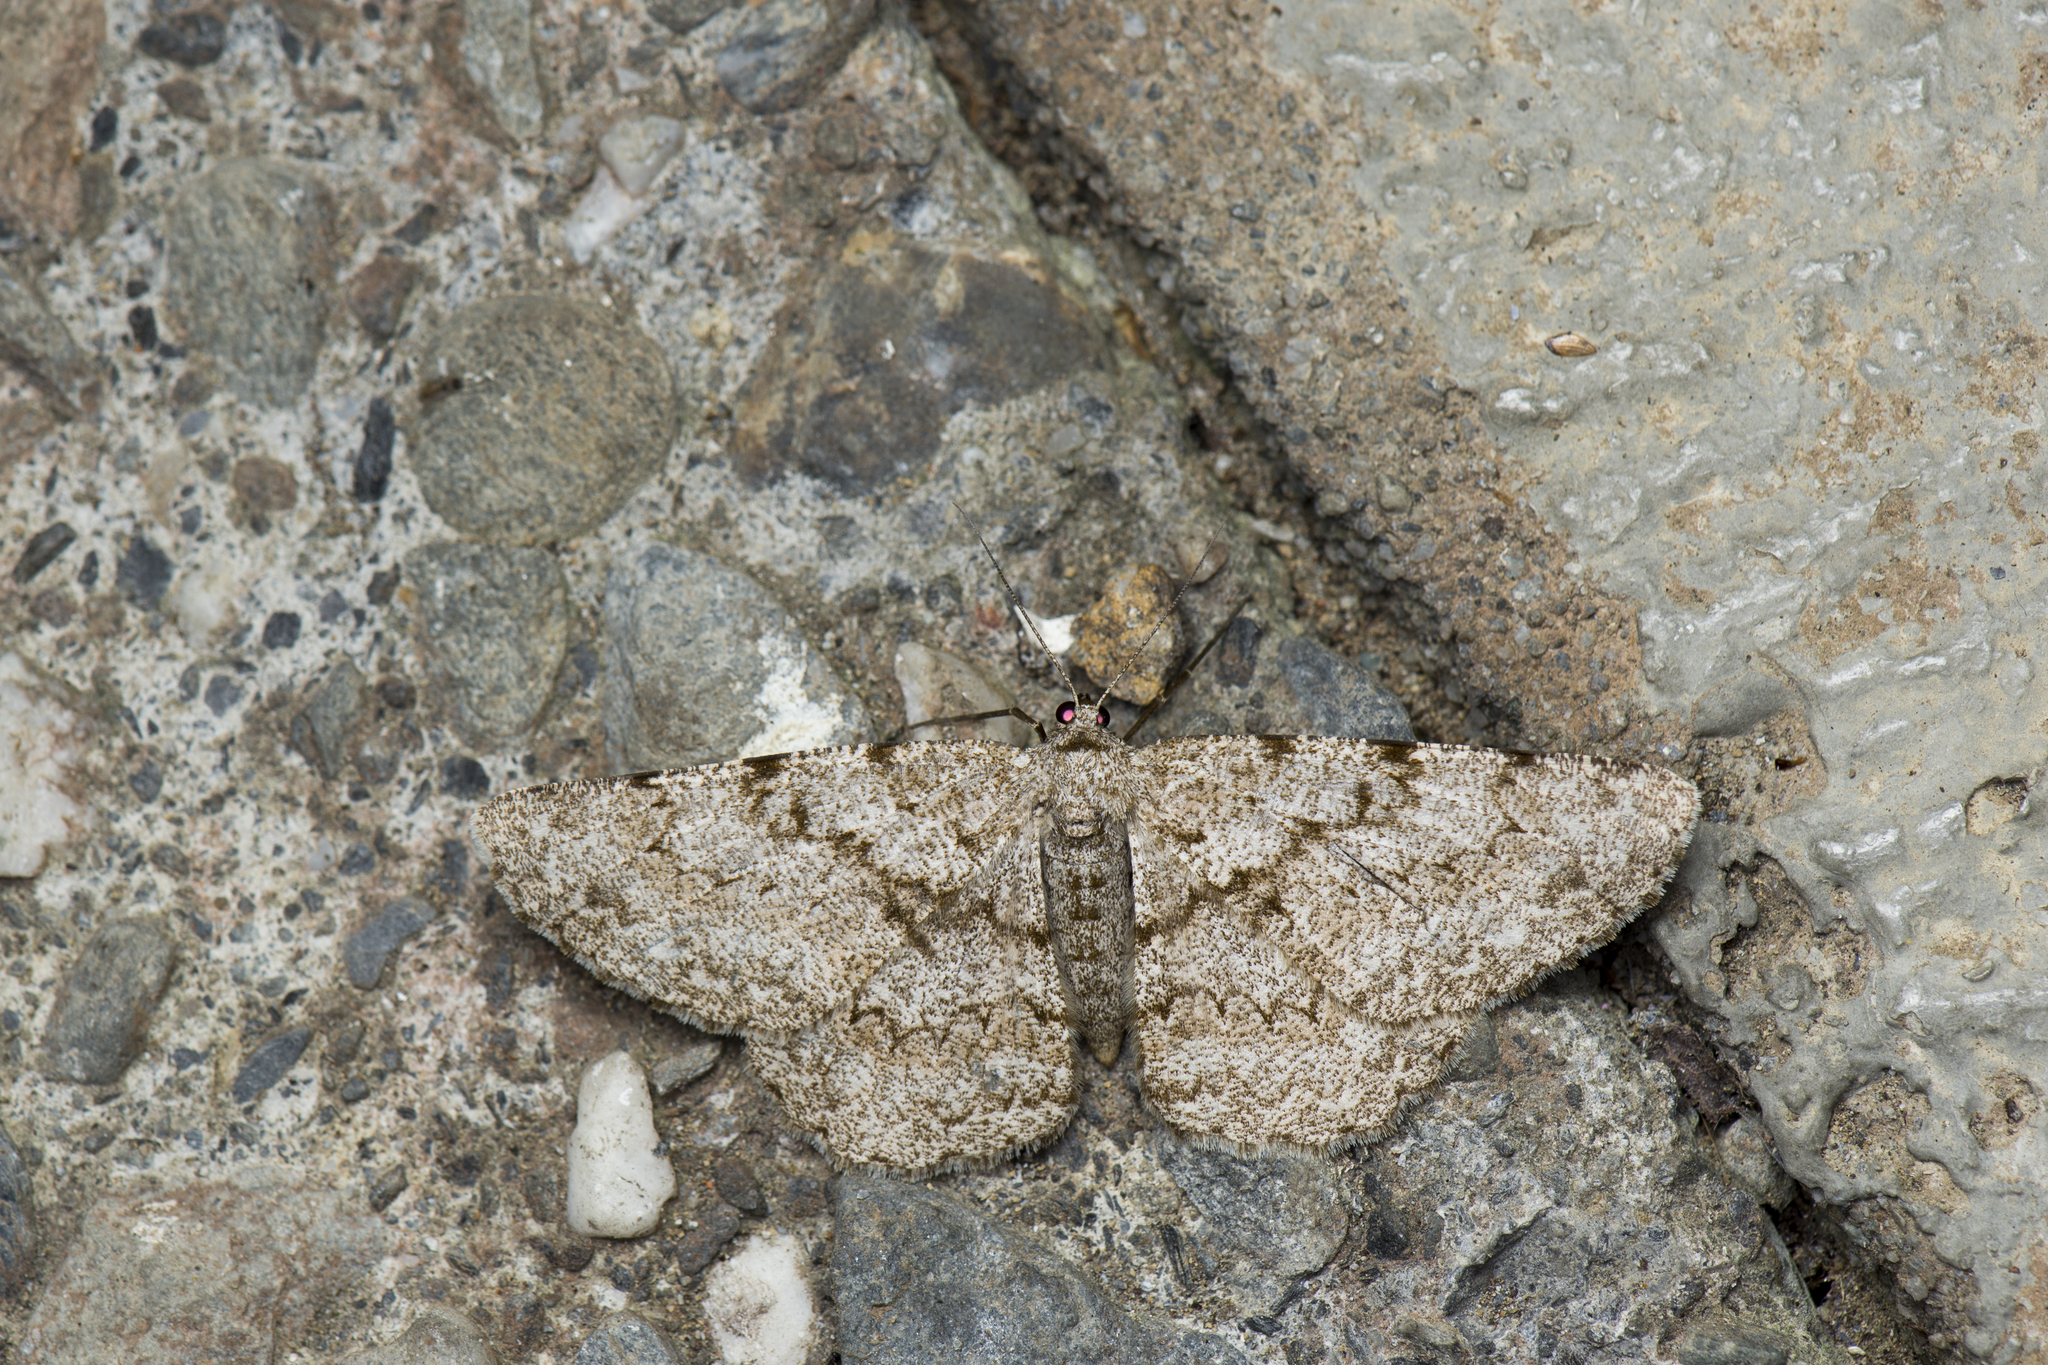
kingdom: Animalia
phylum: Arthropoda
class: Insecta
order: Lepidoptera
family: Geometridae
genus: Hypomecis
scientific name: Hypomecis cineracea
